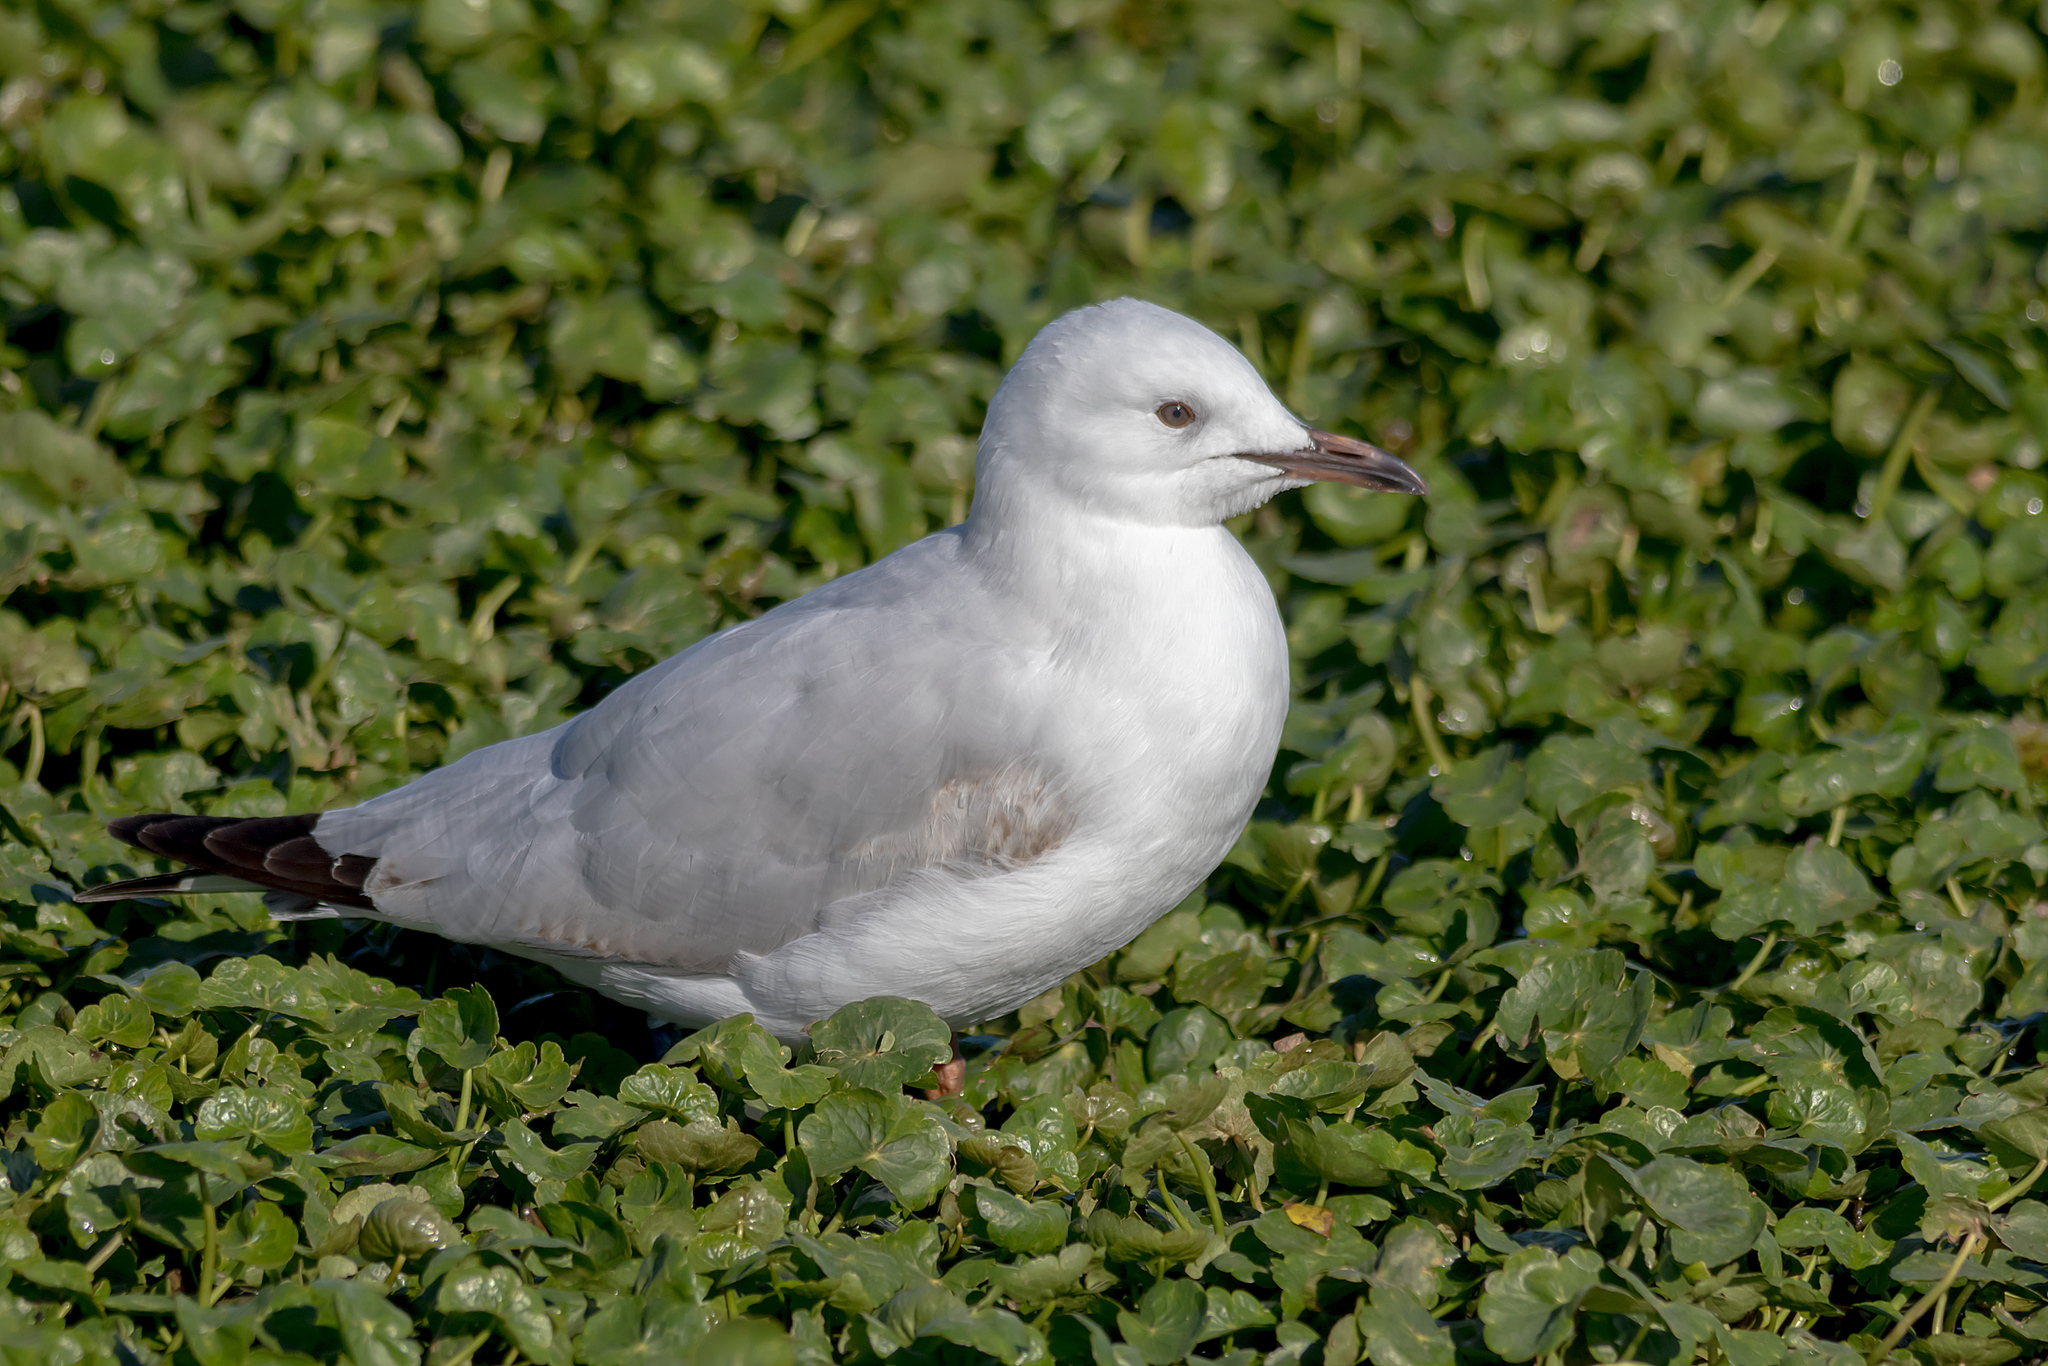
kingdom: Animalia
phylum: Chordata
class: Aves
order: Charadriiformes
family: Laridae
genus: Chroicocephalus
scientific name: Chroicocephalus novaehollandiae
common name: Silver gull
